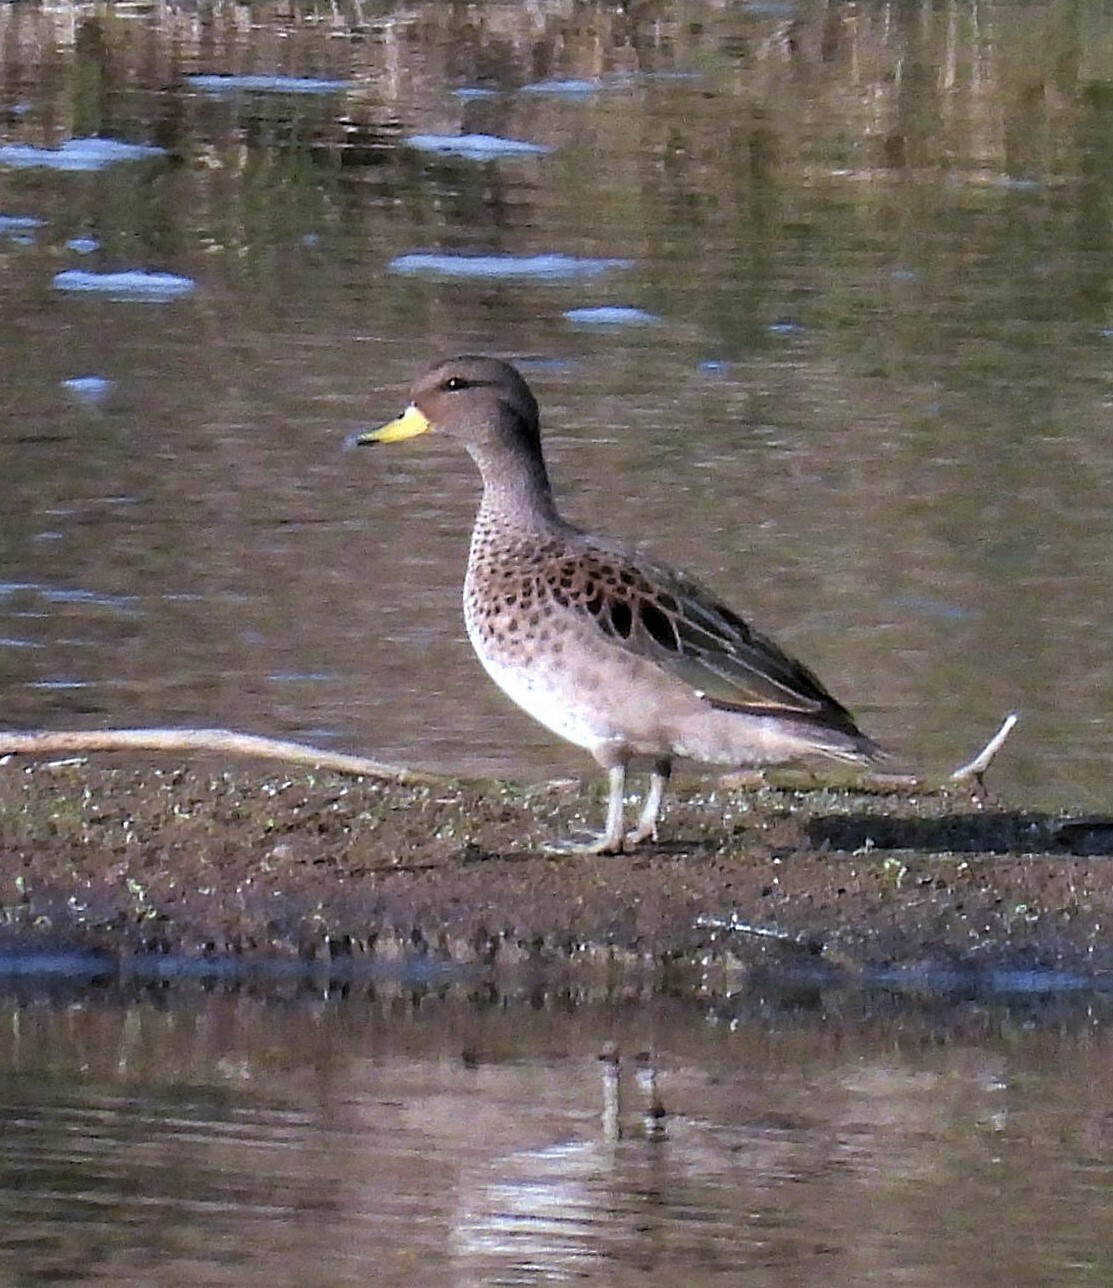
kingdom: Animalia
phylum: Chordata
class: Aves
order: Anseriformes
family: Anatidae
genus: Anas
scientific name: Anas flavirostris
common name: Yellow-billed teal
